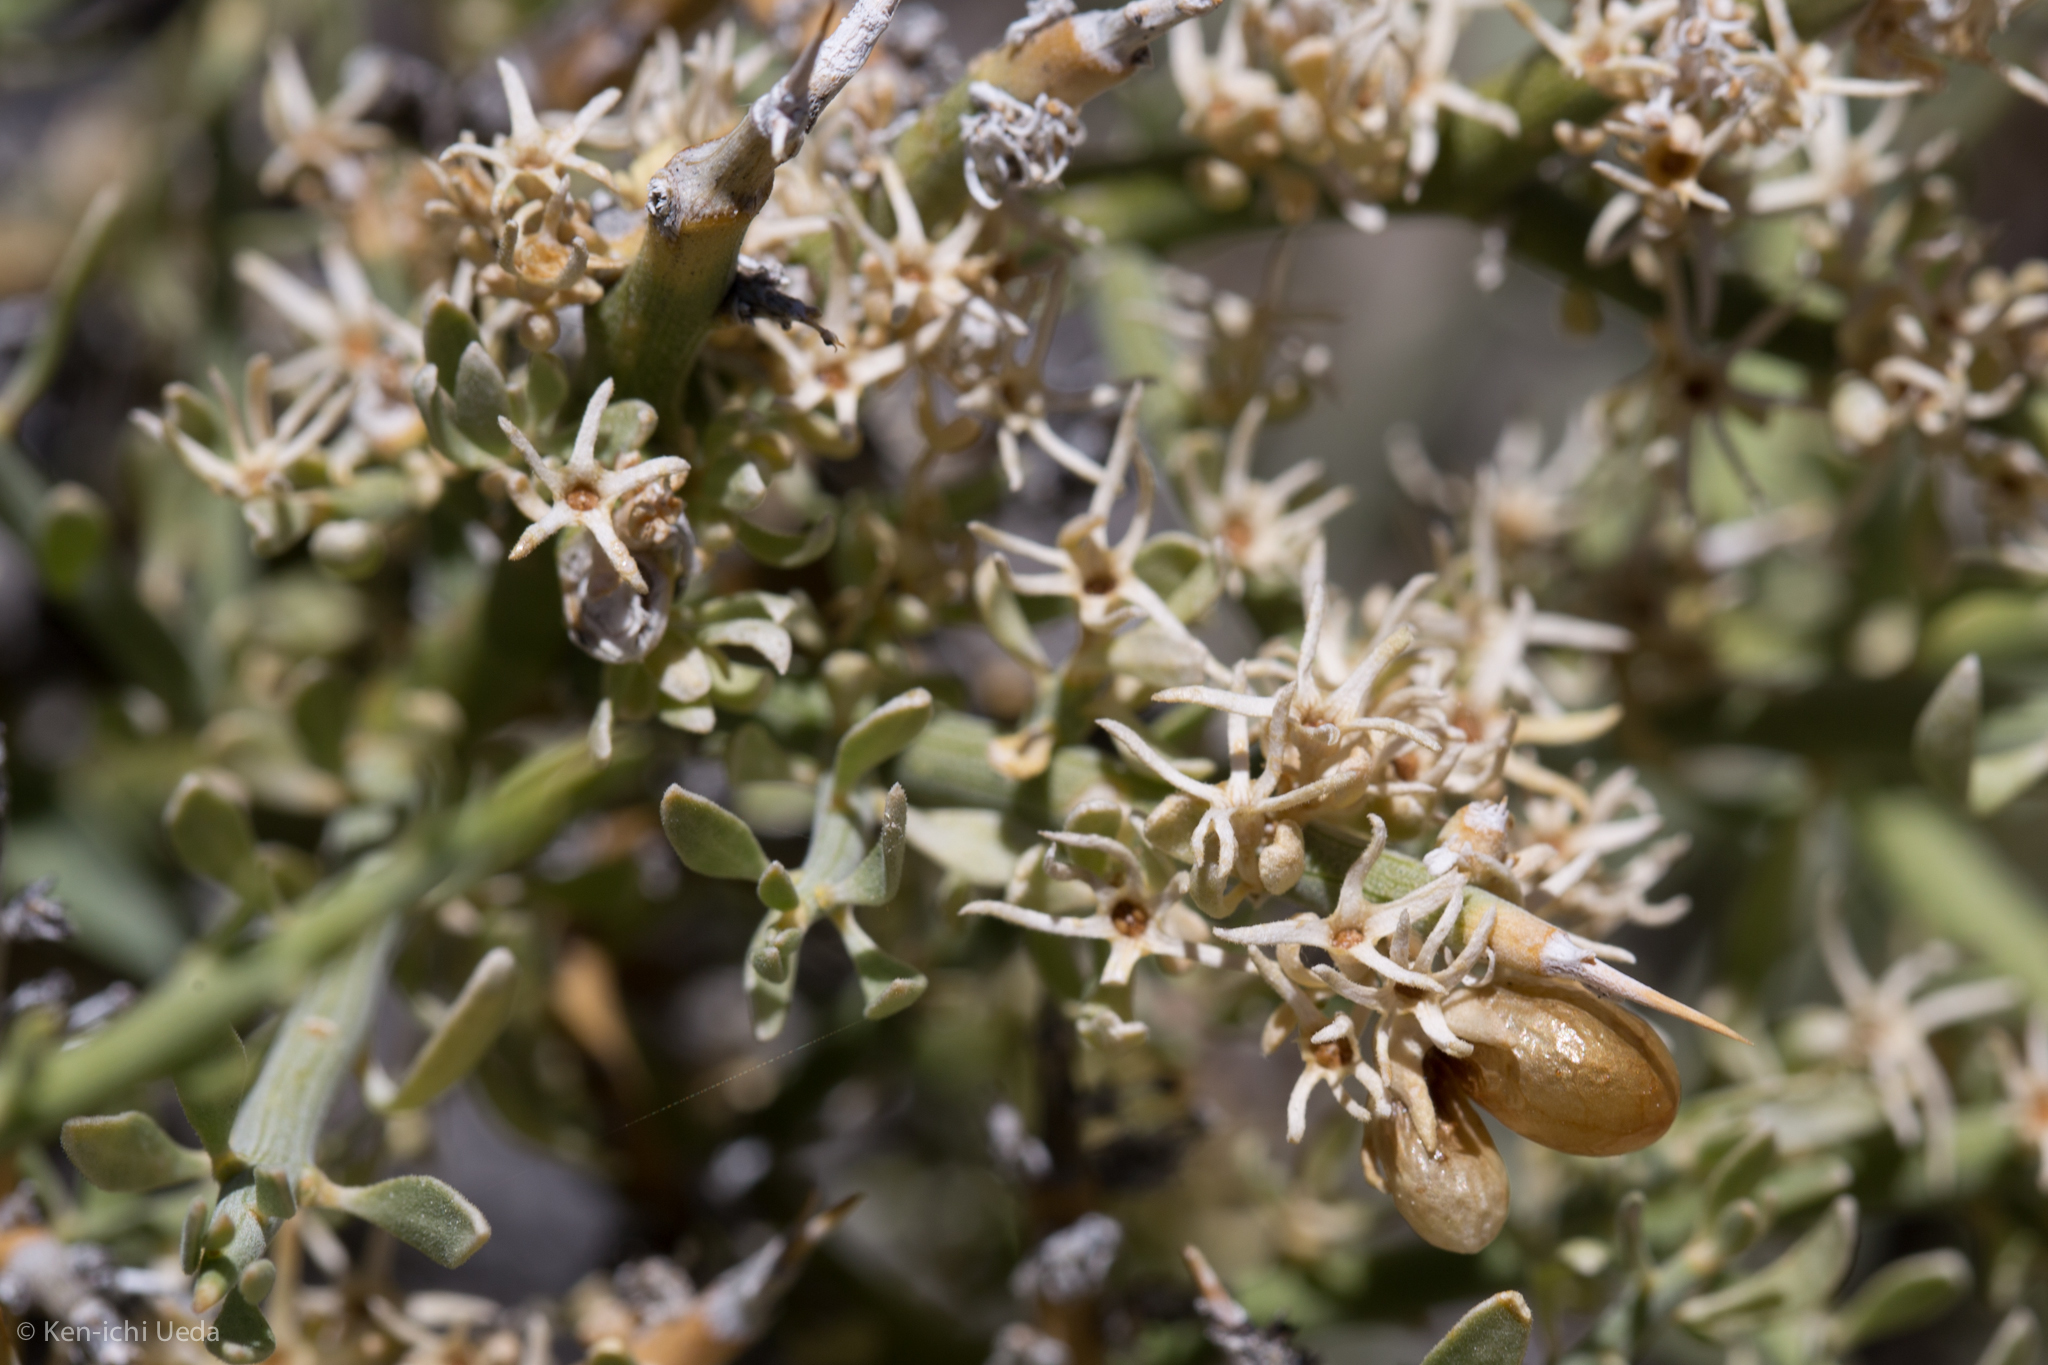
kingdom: Plantae
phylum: Tracheophyta
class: Magnoliopsida
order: Lamiales
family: Oleaceae
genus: Menodora
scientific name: Menodora spinescens
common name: Spiny menodora
